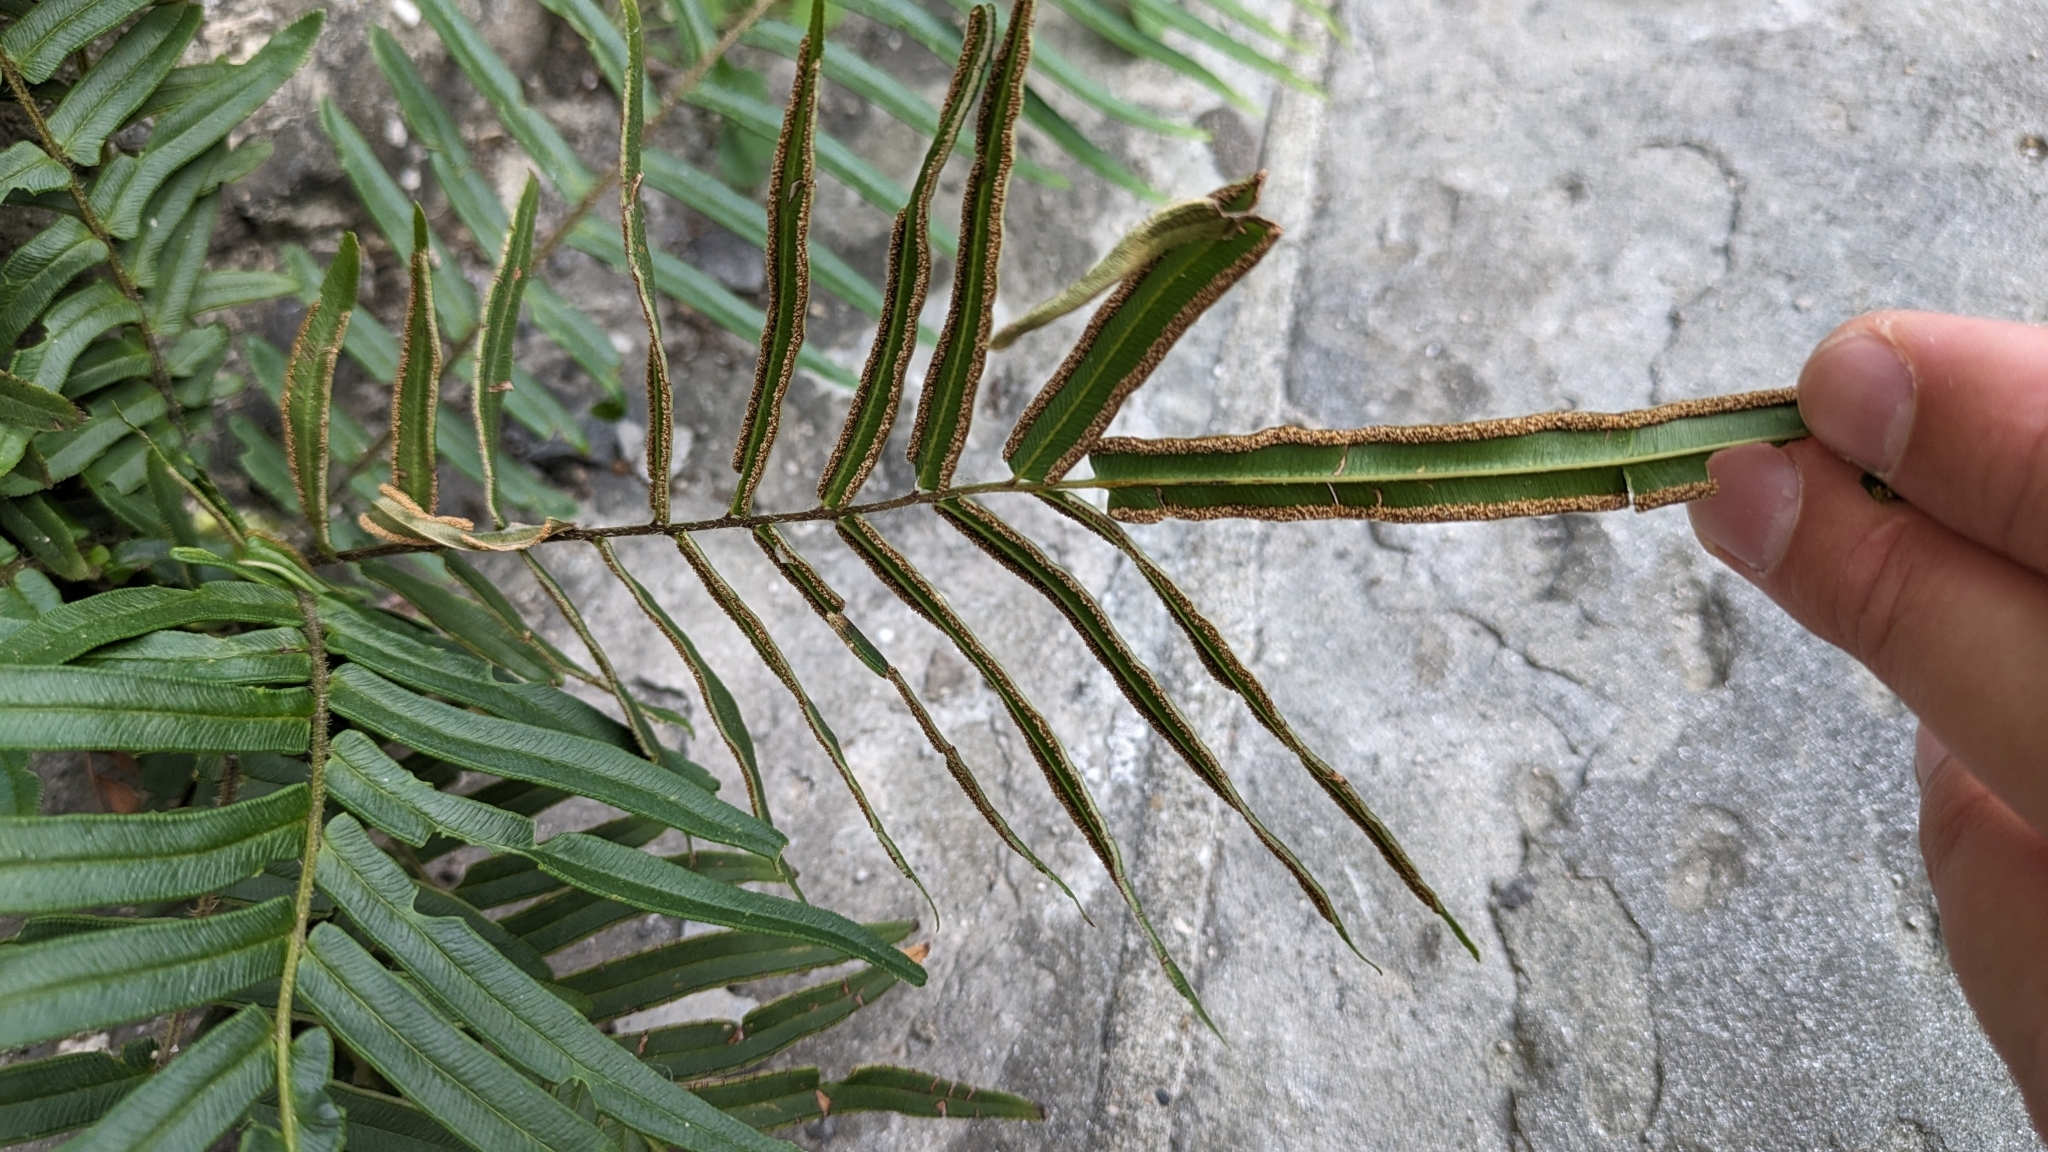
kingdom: Plantae
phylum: Tracheophyta
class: Polypodiopsida
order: Polypodiales
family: Pteridaceae
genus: Pteris
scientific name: Pteris vittata
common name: Ladder brake
